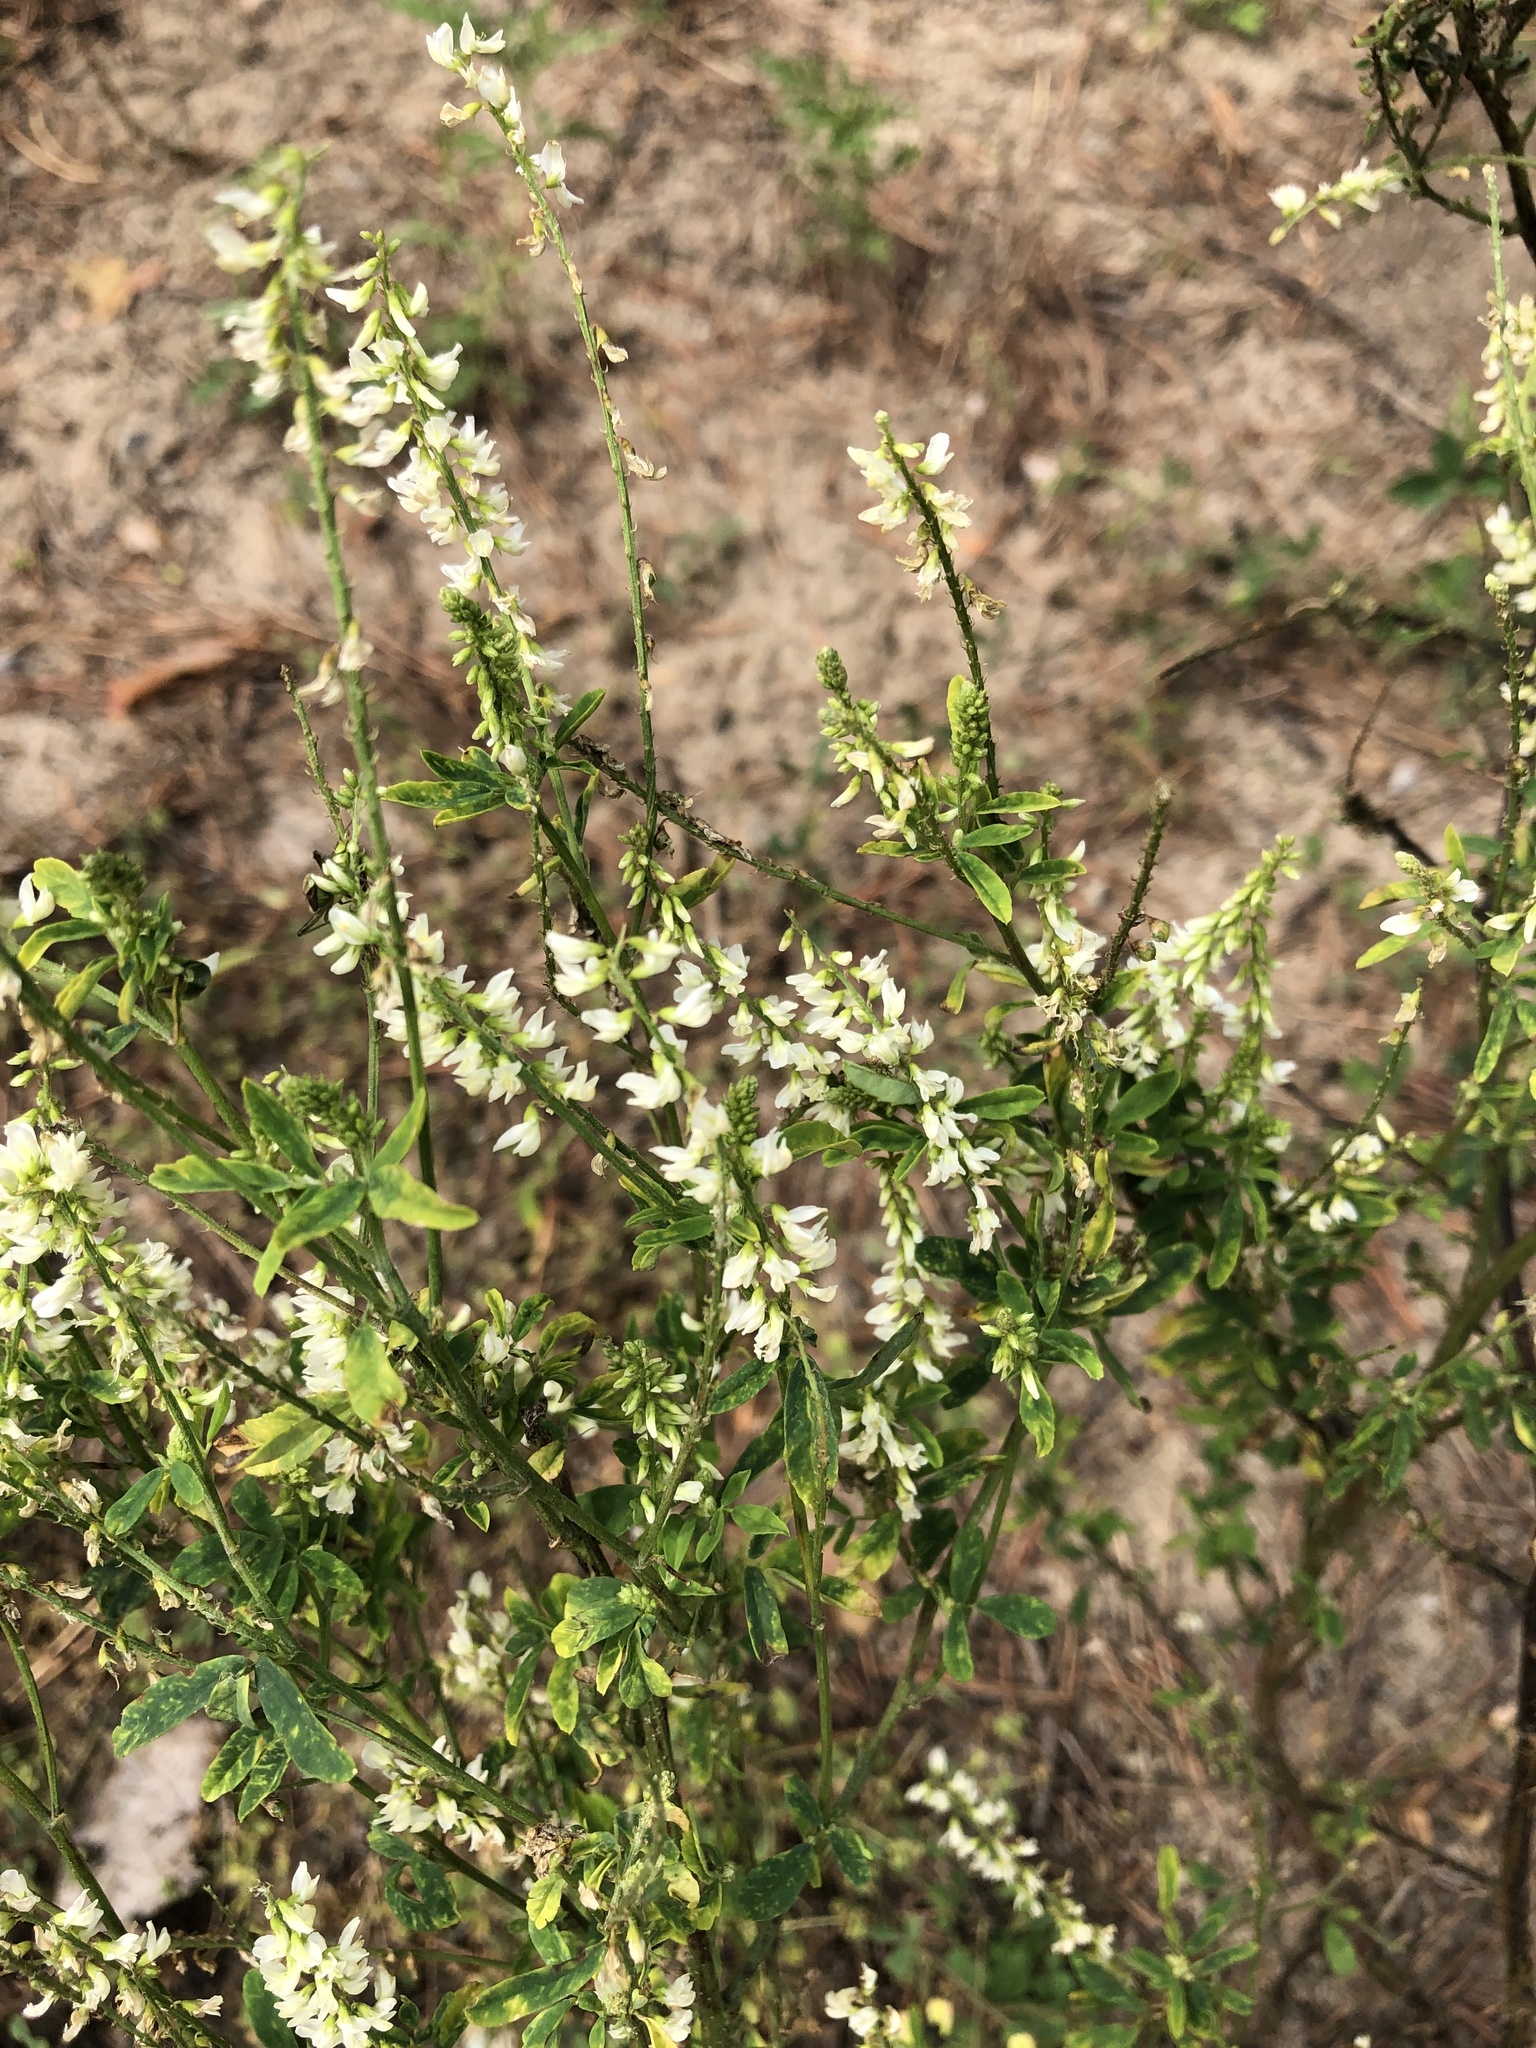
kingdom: Plantae
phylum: Tracheophyta
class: Magnoliopsida
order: Fabales
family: Fabaceae
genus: Melilotus
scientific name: Melilotus albus
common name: White melilot
